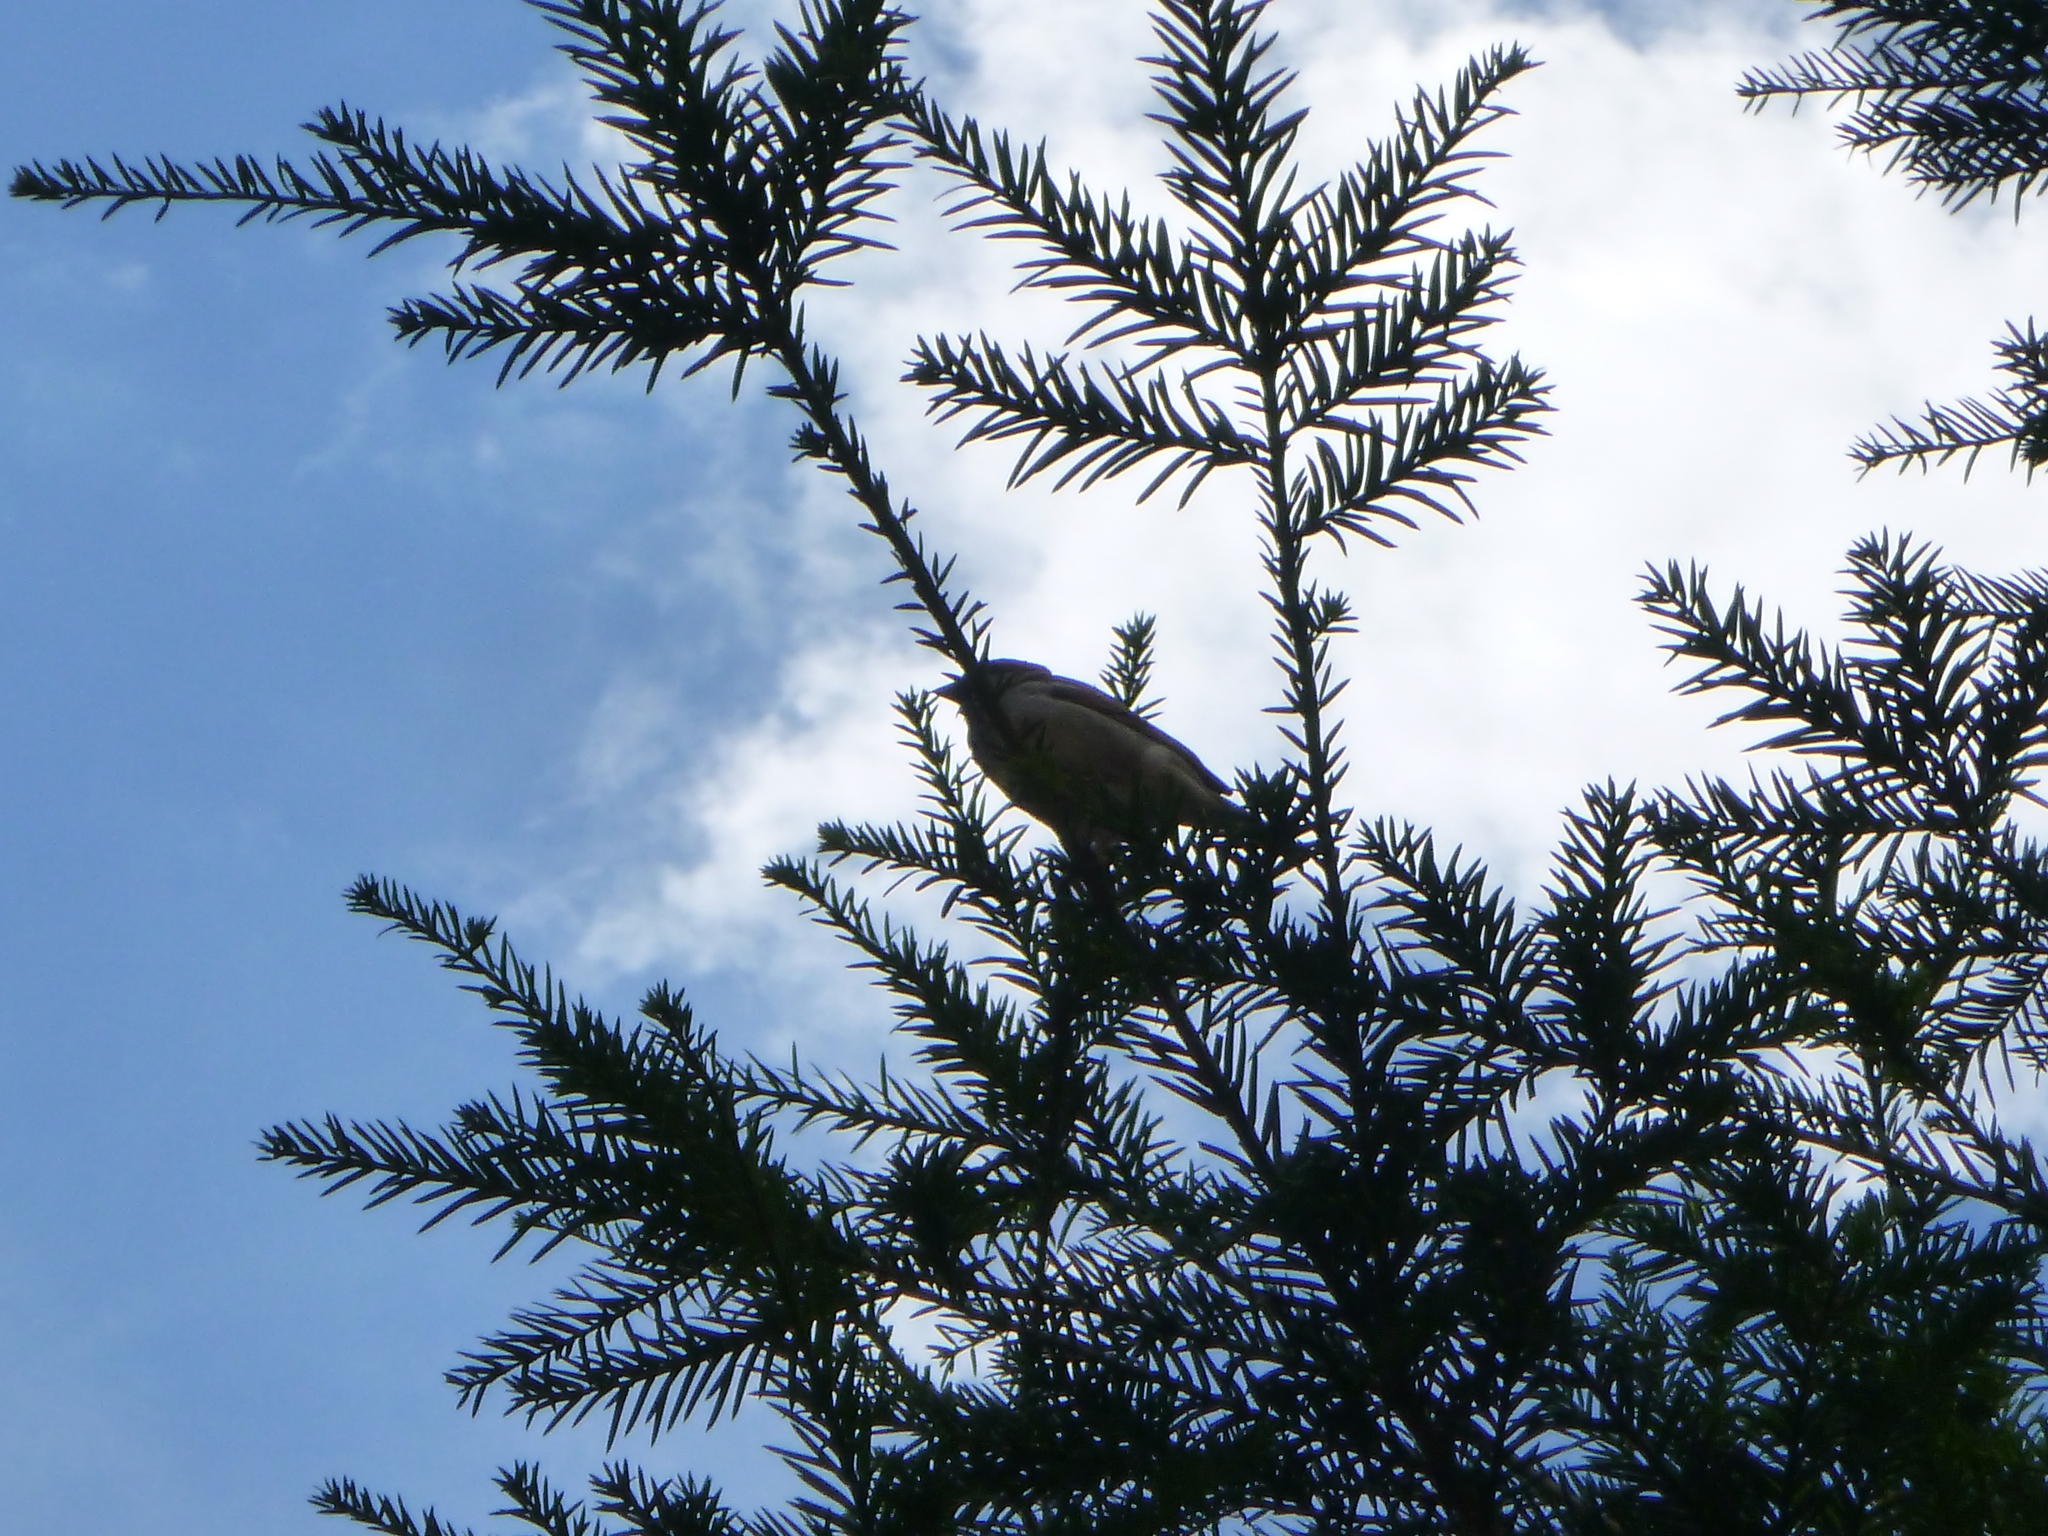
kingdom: Animalia
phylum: Chordata
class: Aves
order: Passeriformes
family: Passeridae
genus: Passer
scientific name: Passer domesticus
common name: House sparrow
